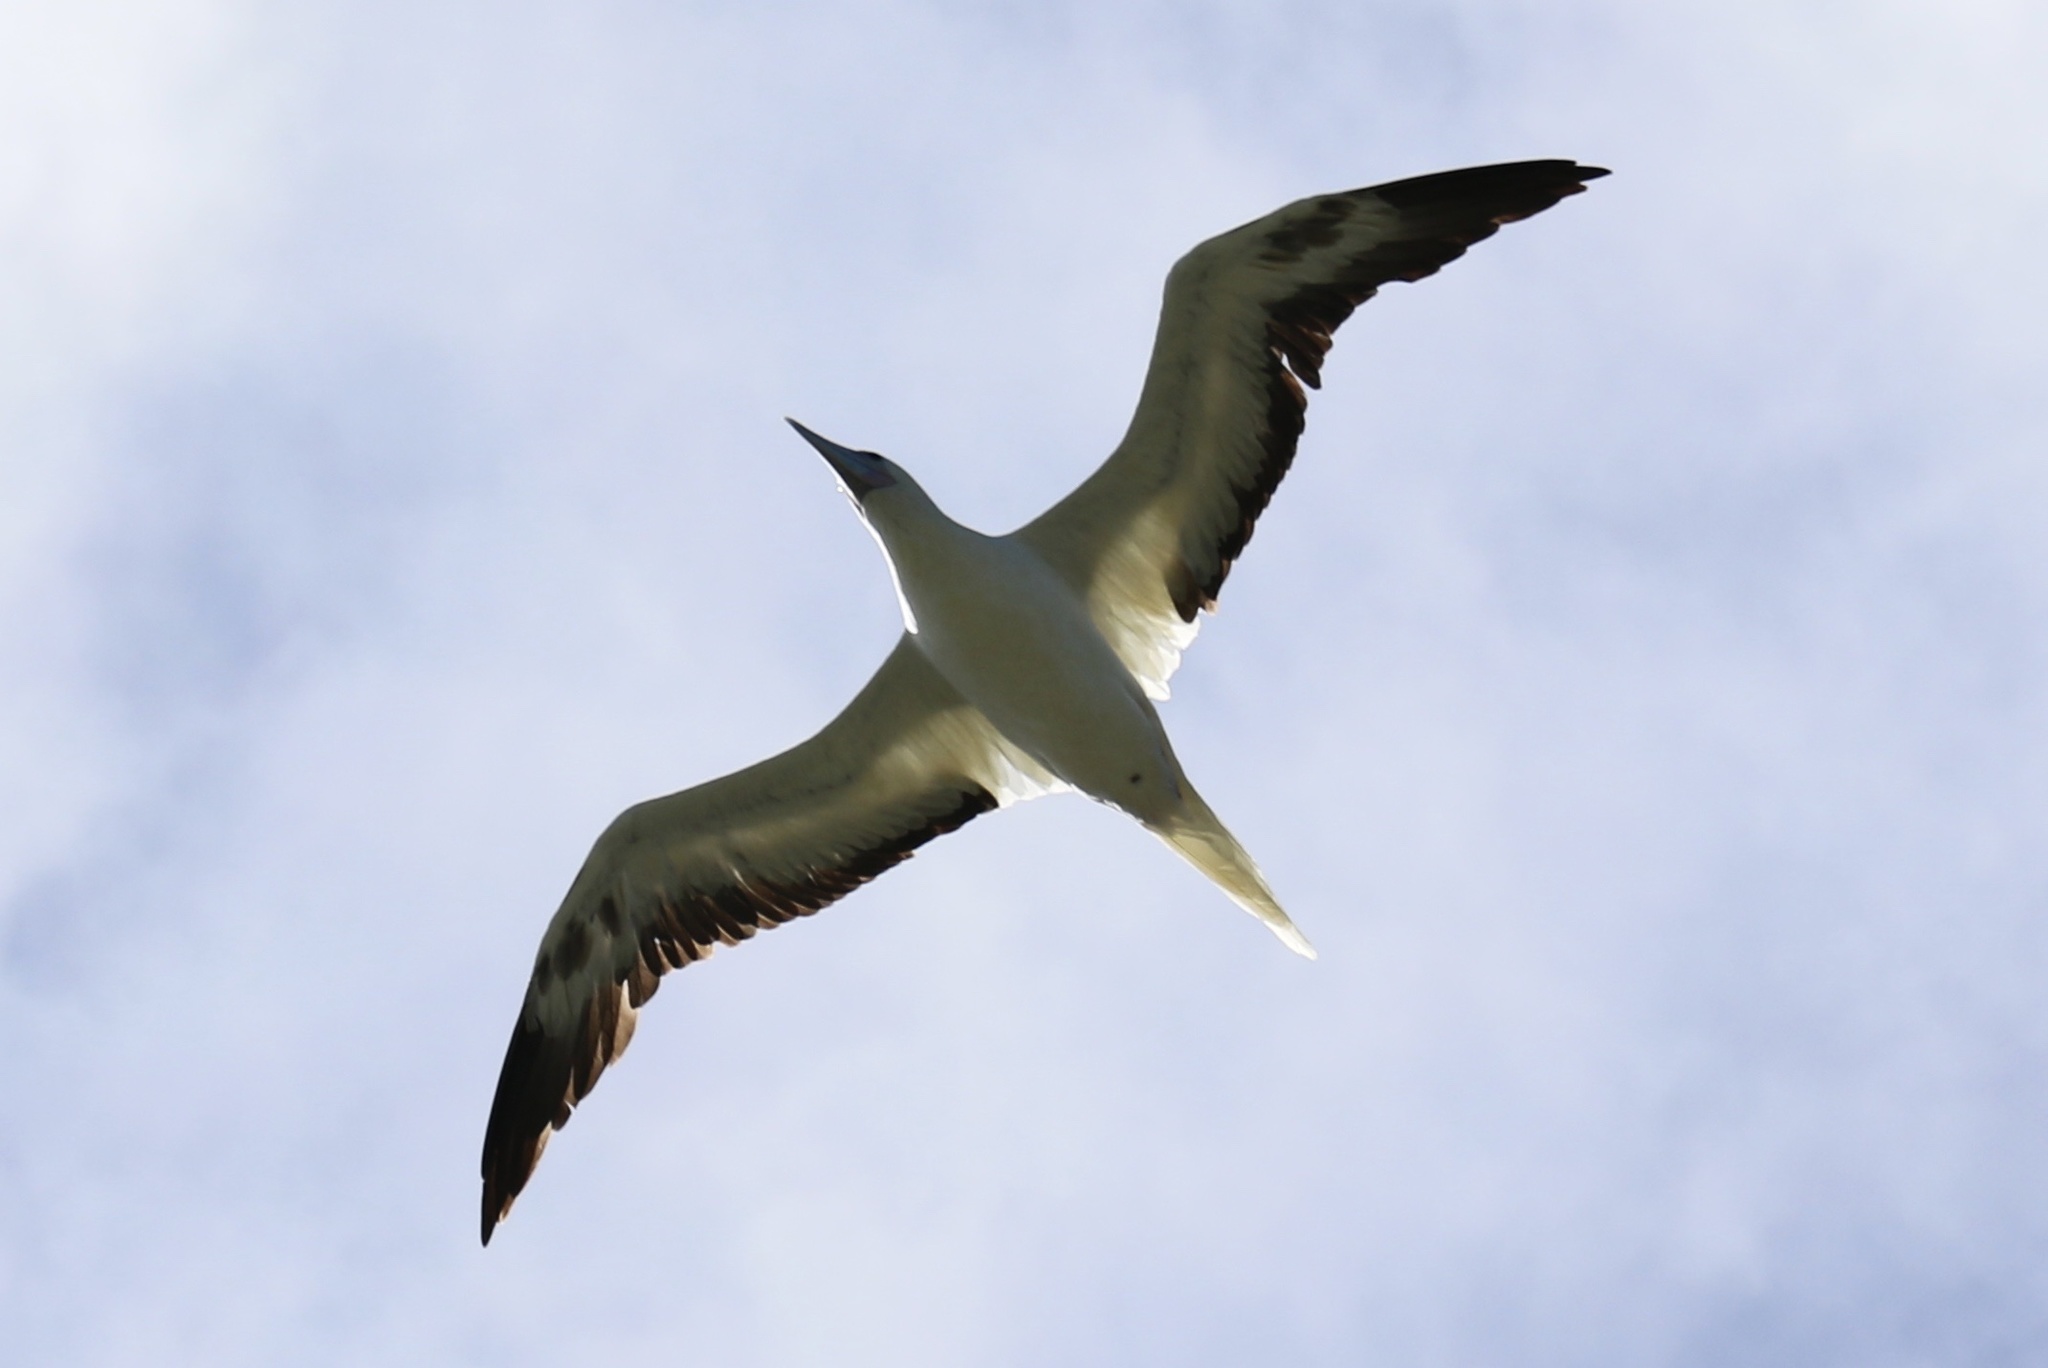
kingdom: Animalia
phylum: Chordata
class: Aves
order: Suliformes
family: Sulidae
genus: Sula
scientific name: Sula sula
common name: Red-footed booby
